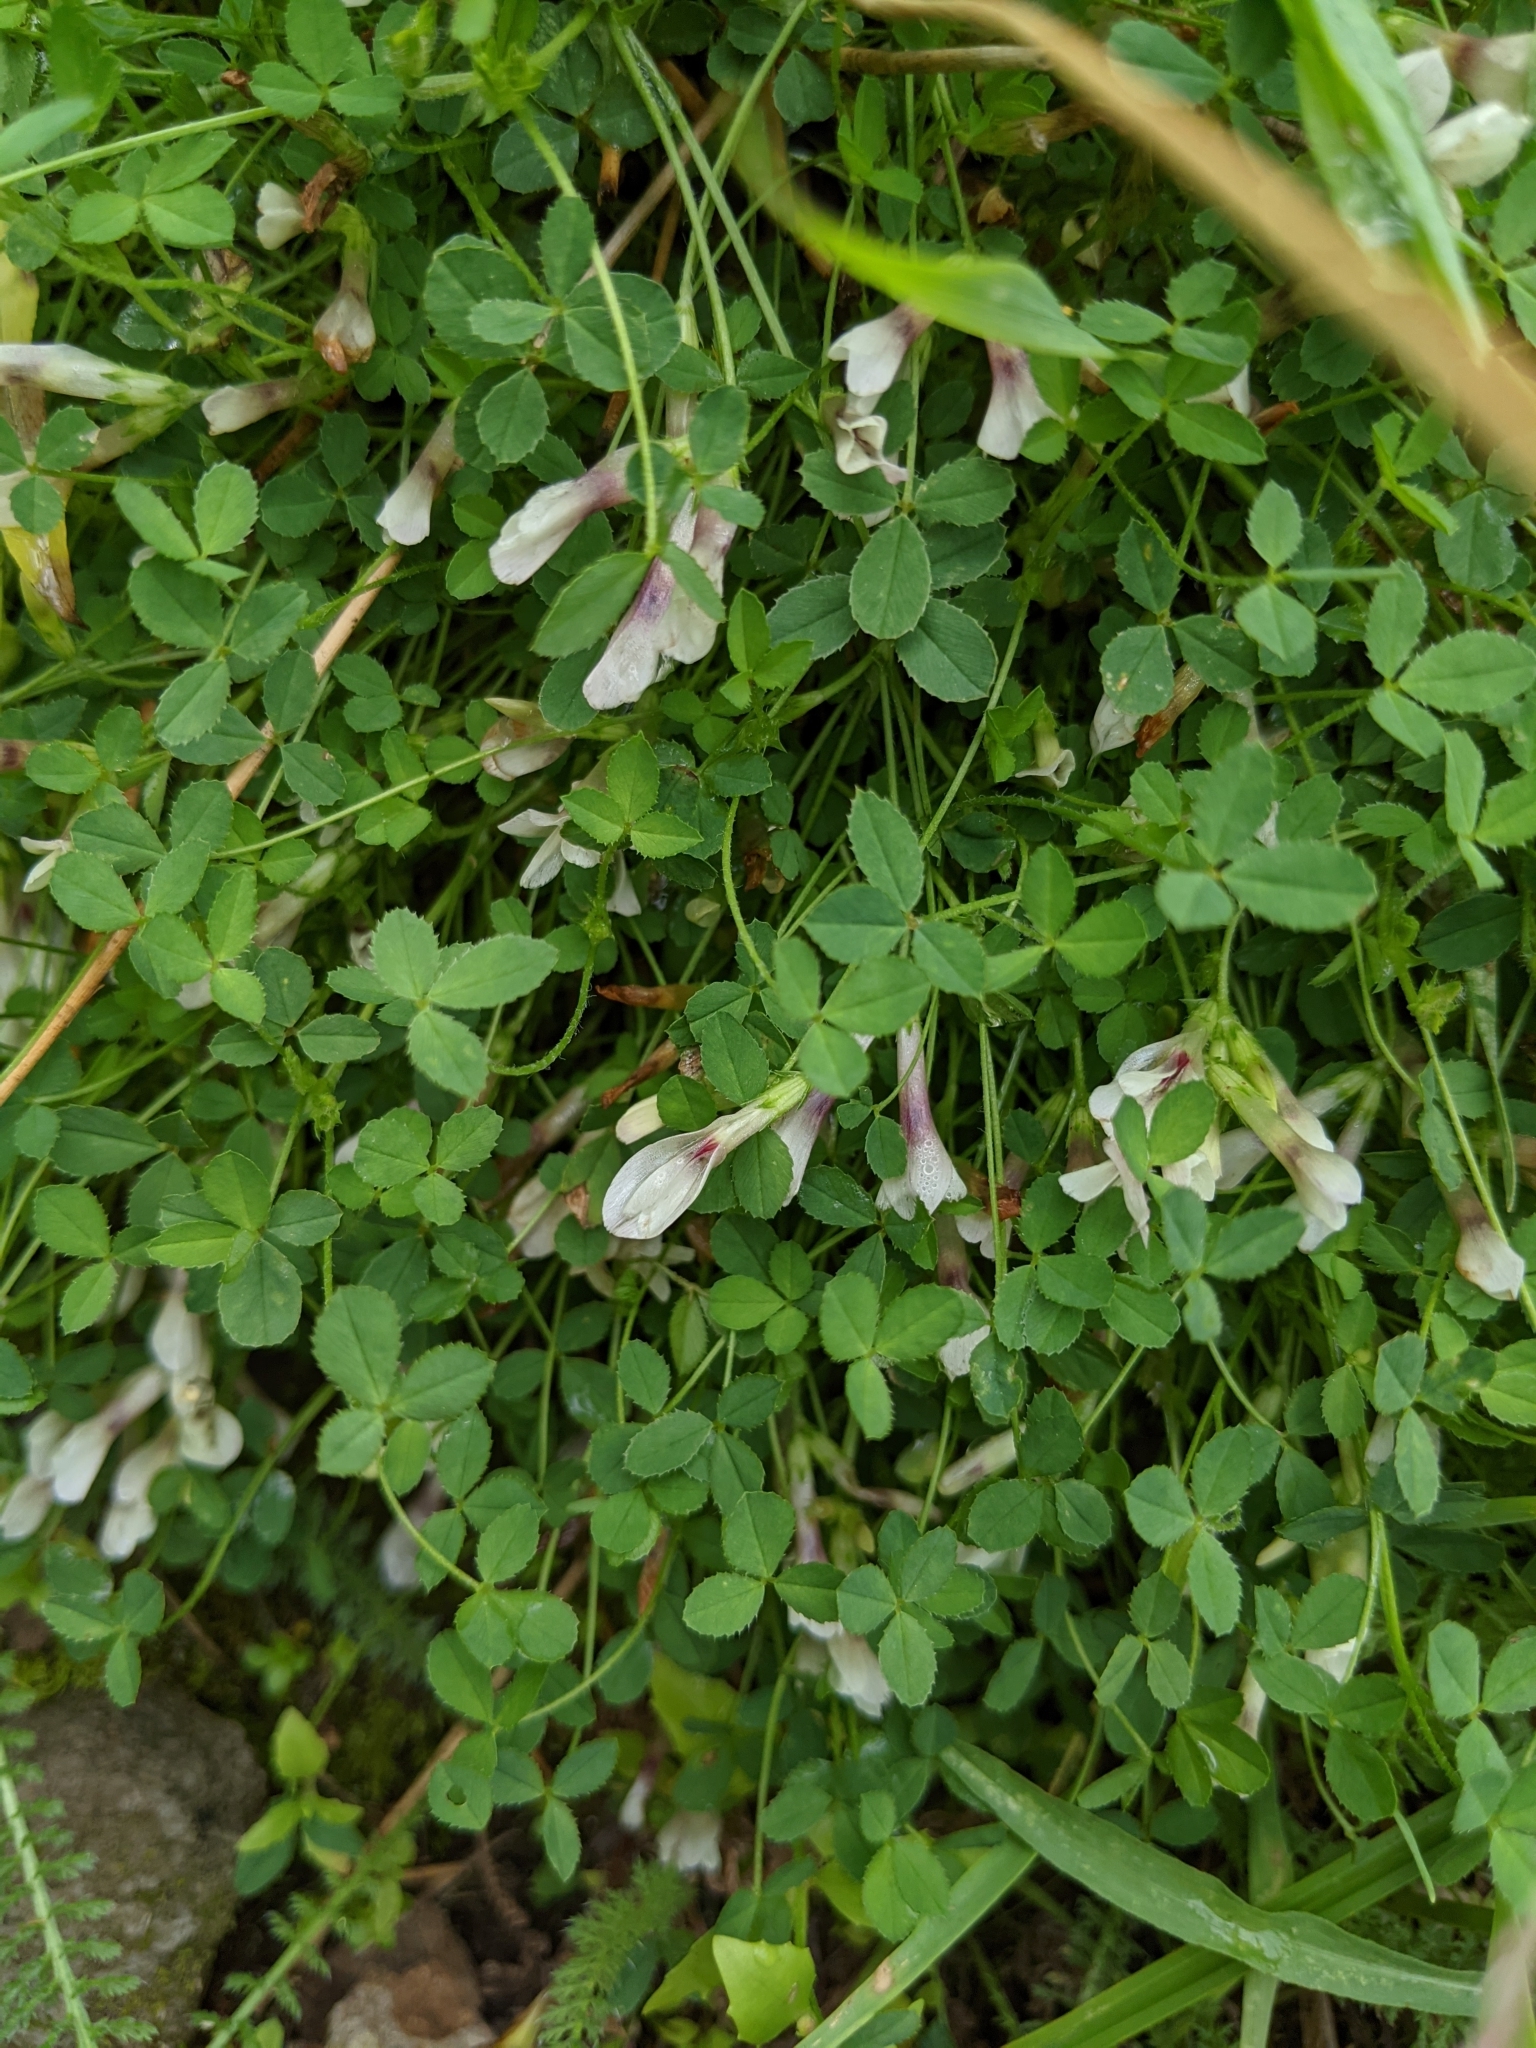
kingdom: Plantae
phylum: Tracheophyta
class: Magnoliopsida
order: Fabales
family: Fabaceae
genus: Trifolium
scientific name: Trifolium monanthum
